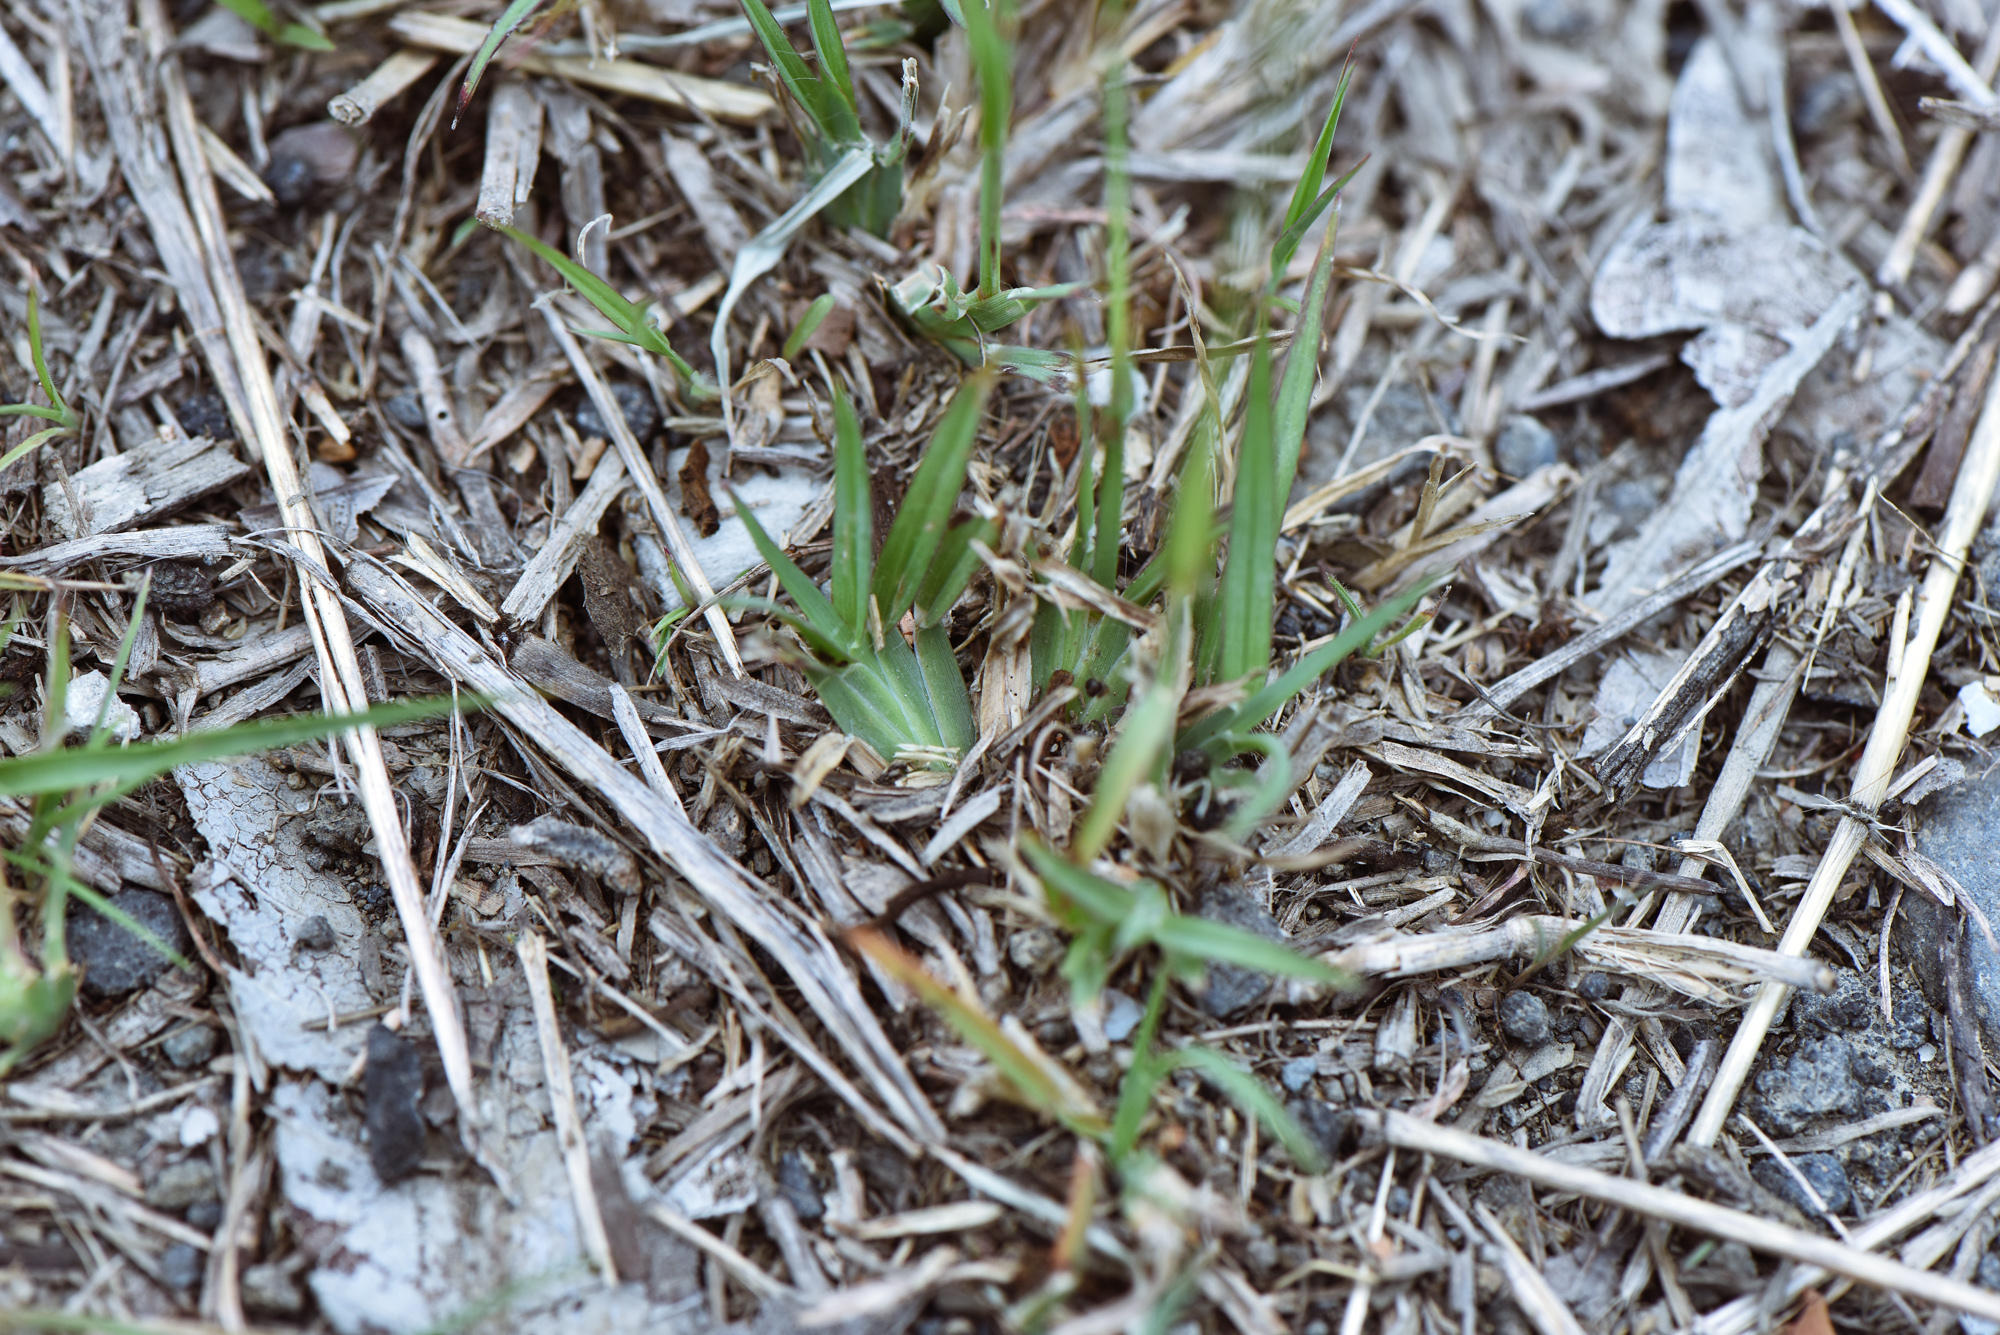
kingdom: Plantae
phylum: Tracheophyta
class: Liliopsida
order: Poales
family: Poaceae
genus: Chloris
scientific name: Chloris barbata
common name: Swollen fingergrass
